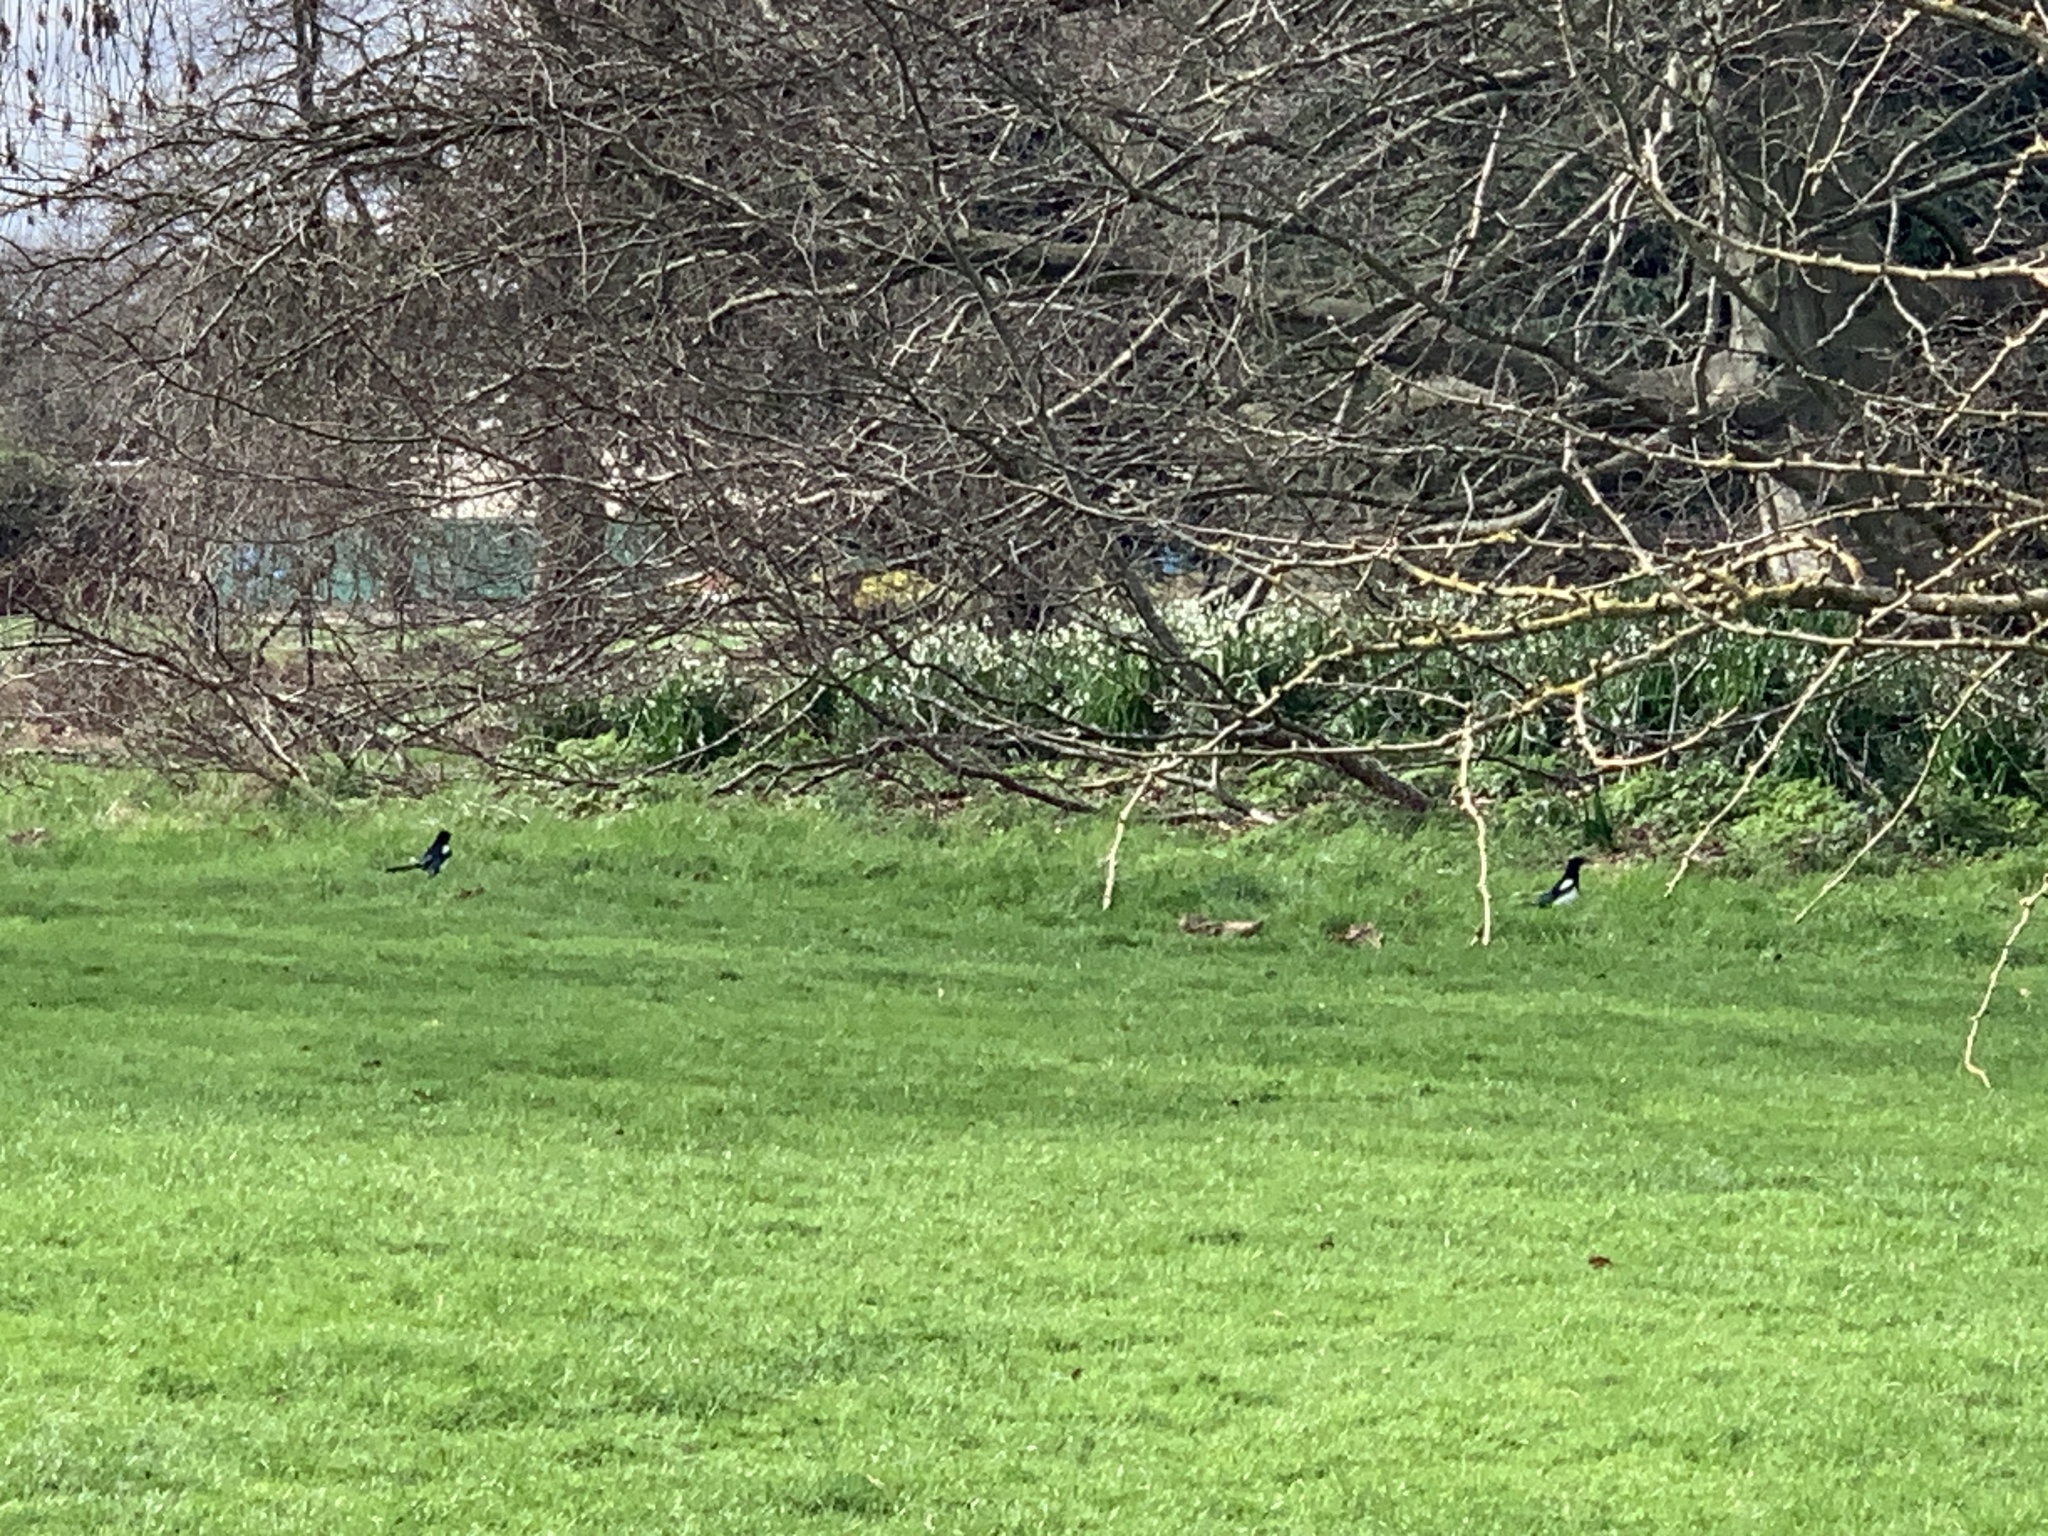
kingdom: Animalia
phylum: Chordata
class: Aves
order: Passeriformes
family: Corvidae
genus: Pica
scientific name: Pica pica
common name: Eurasian magpie
